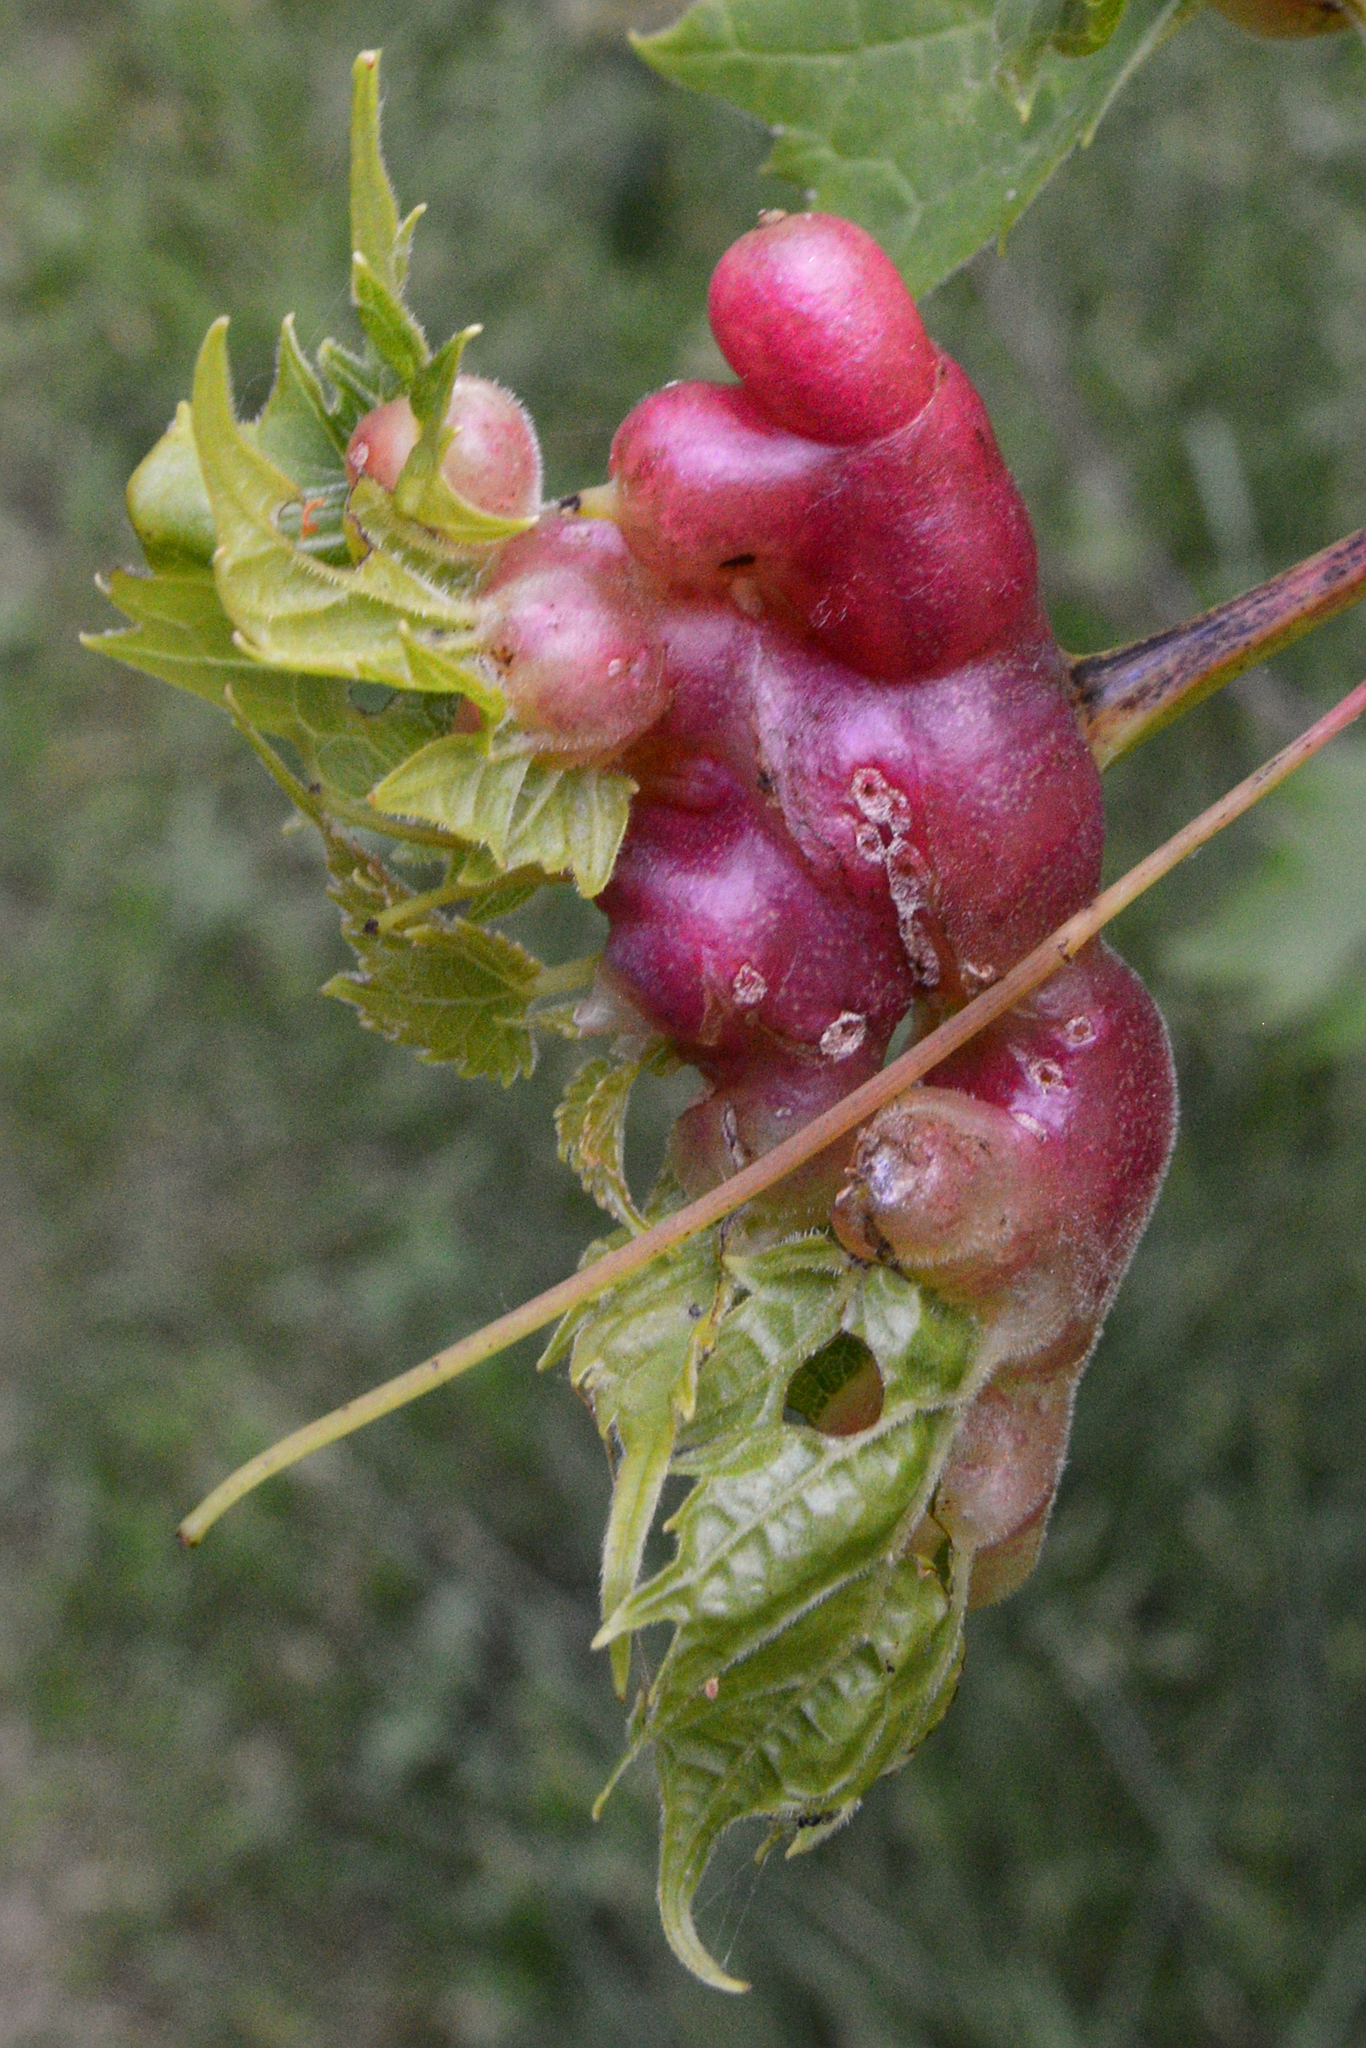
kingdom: Animalia
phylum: Arthropoda
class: Insecta
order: Diptera
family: Cecidomyiidae
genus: Vitisiella
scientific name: Vitisiella brevicauda
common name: Grape tumid gallmaker midge
